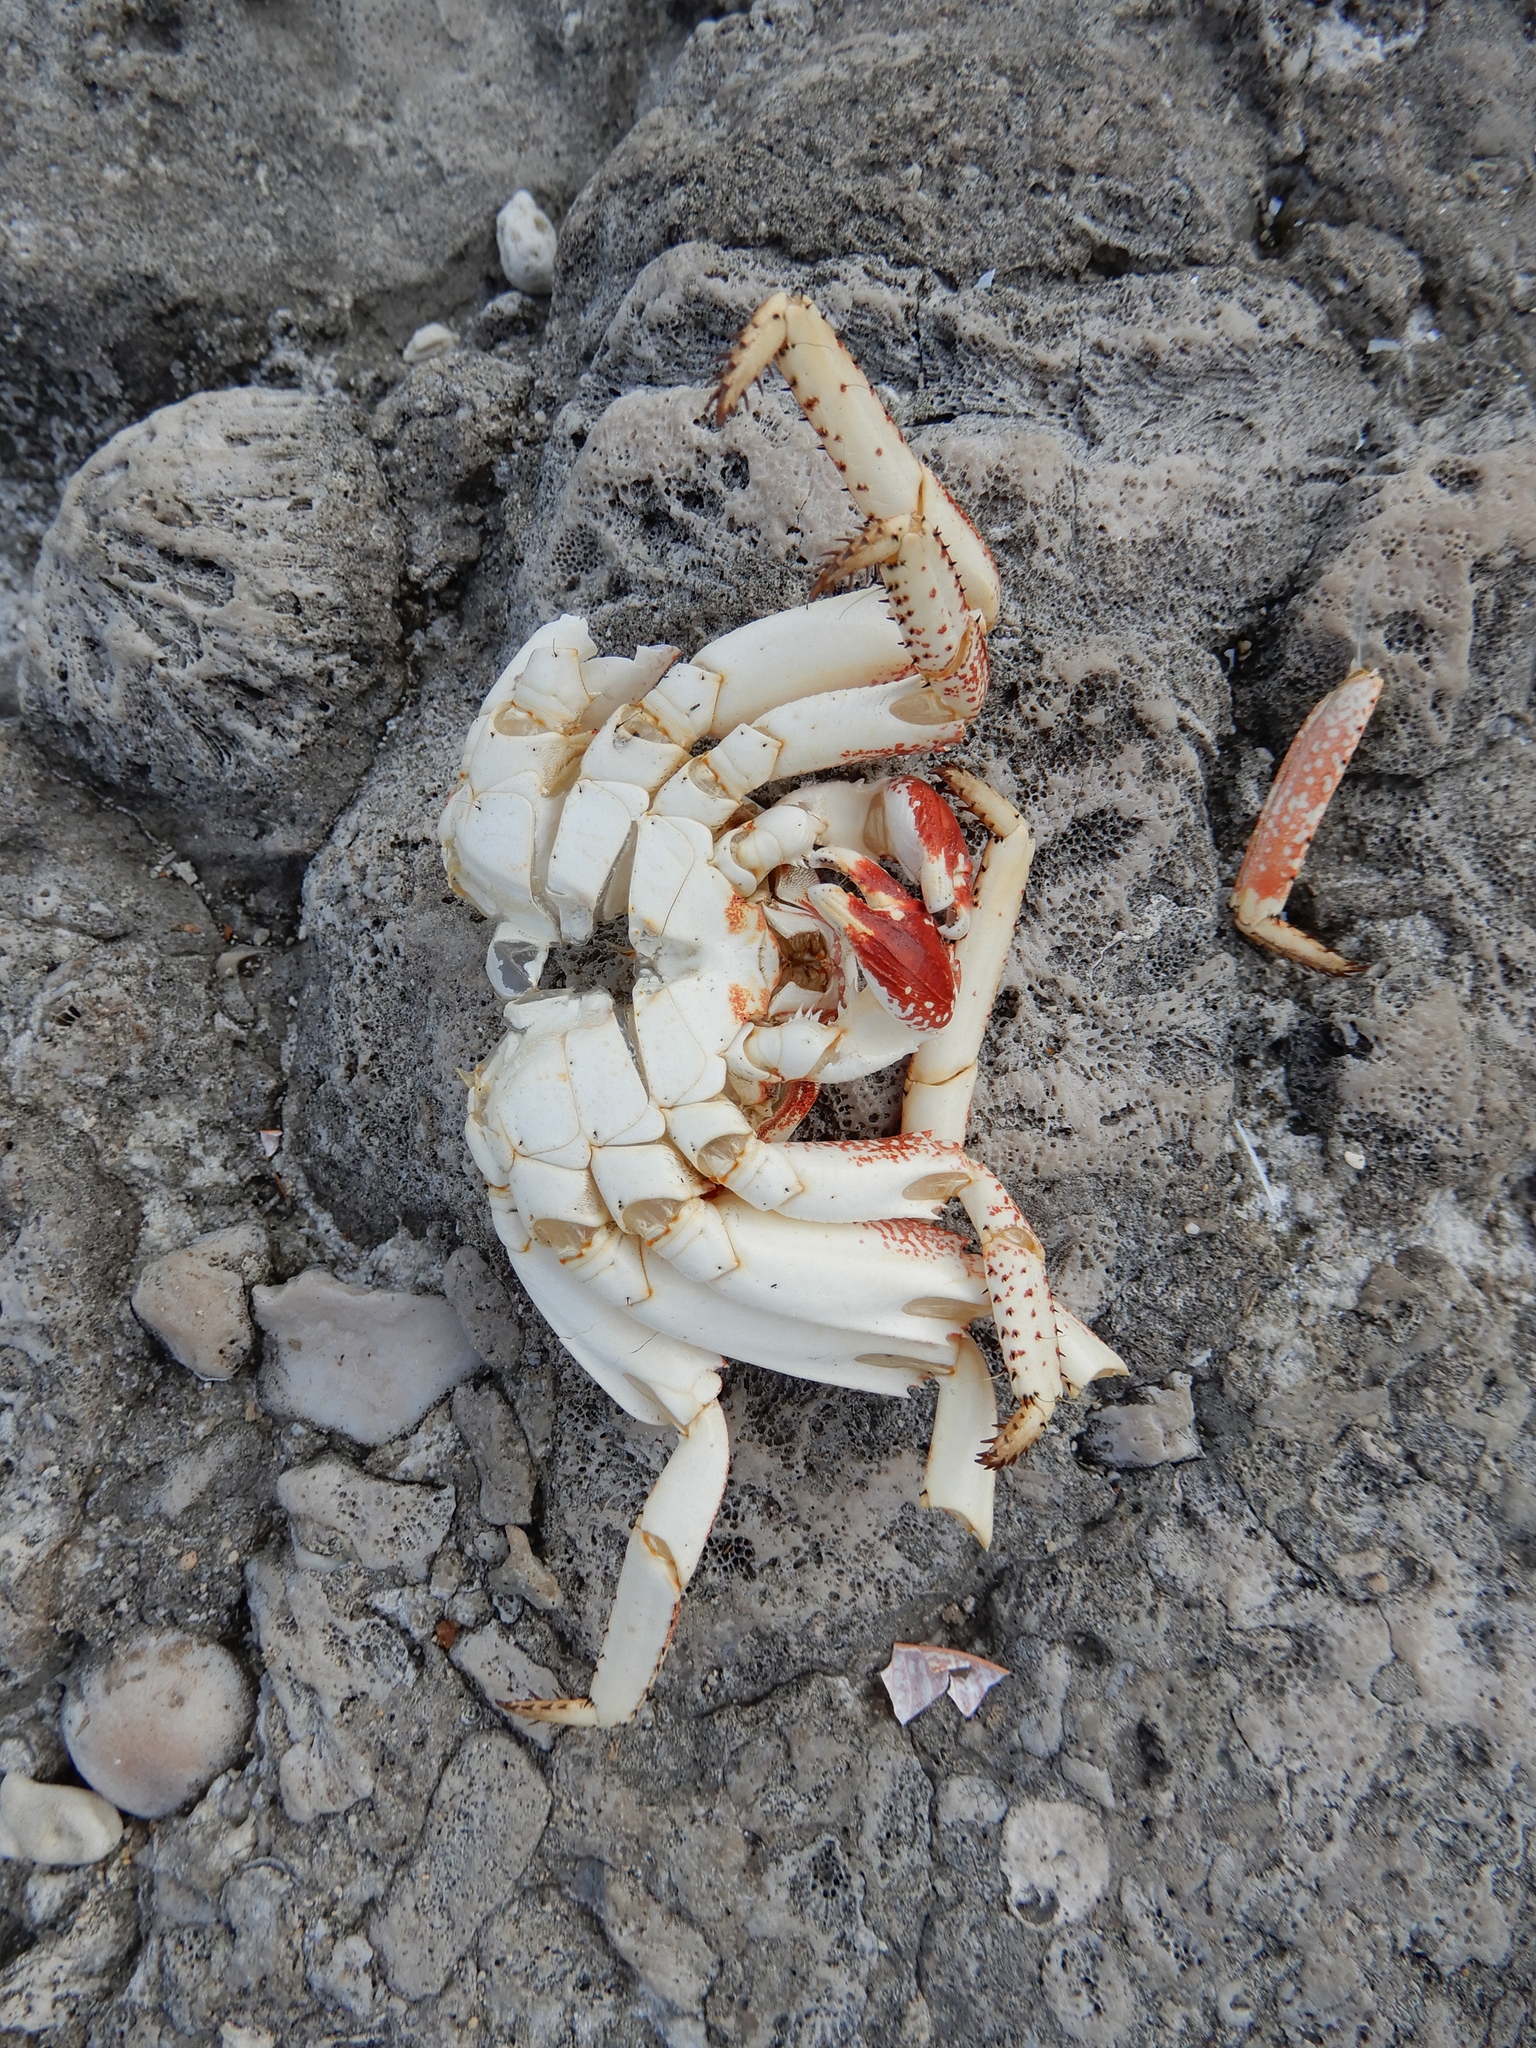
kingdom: Animalia
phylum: Arthropoda
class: Malacostraca
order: Decapoda
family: Grapsidae
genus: Grapsus
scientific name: Grapsus tenuicrustatus
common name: Natal lightfoot crab
